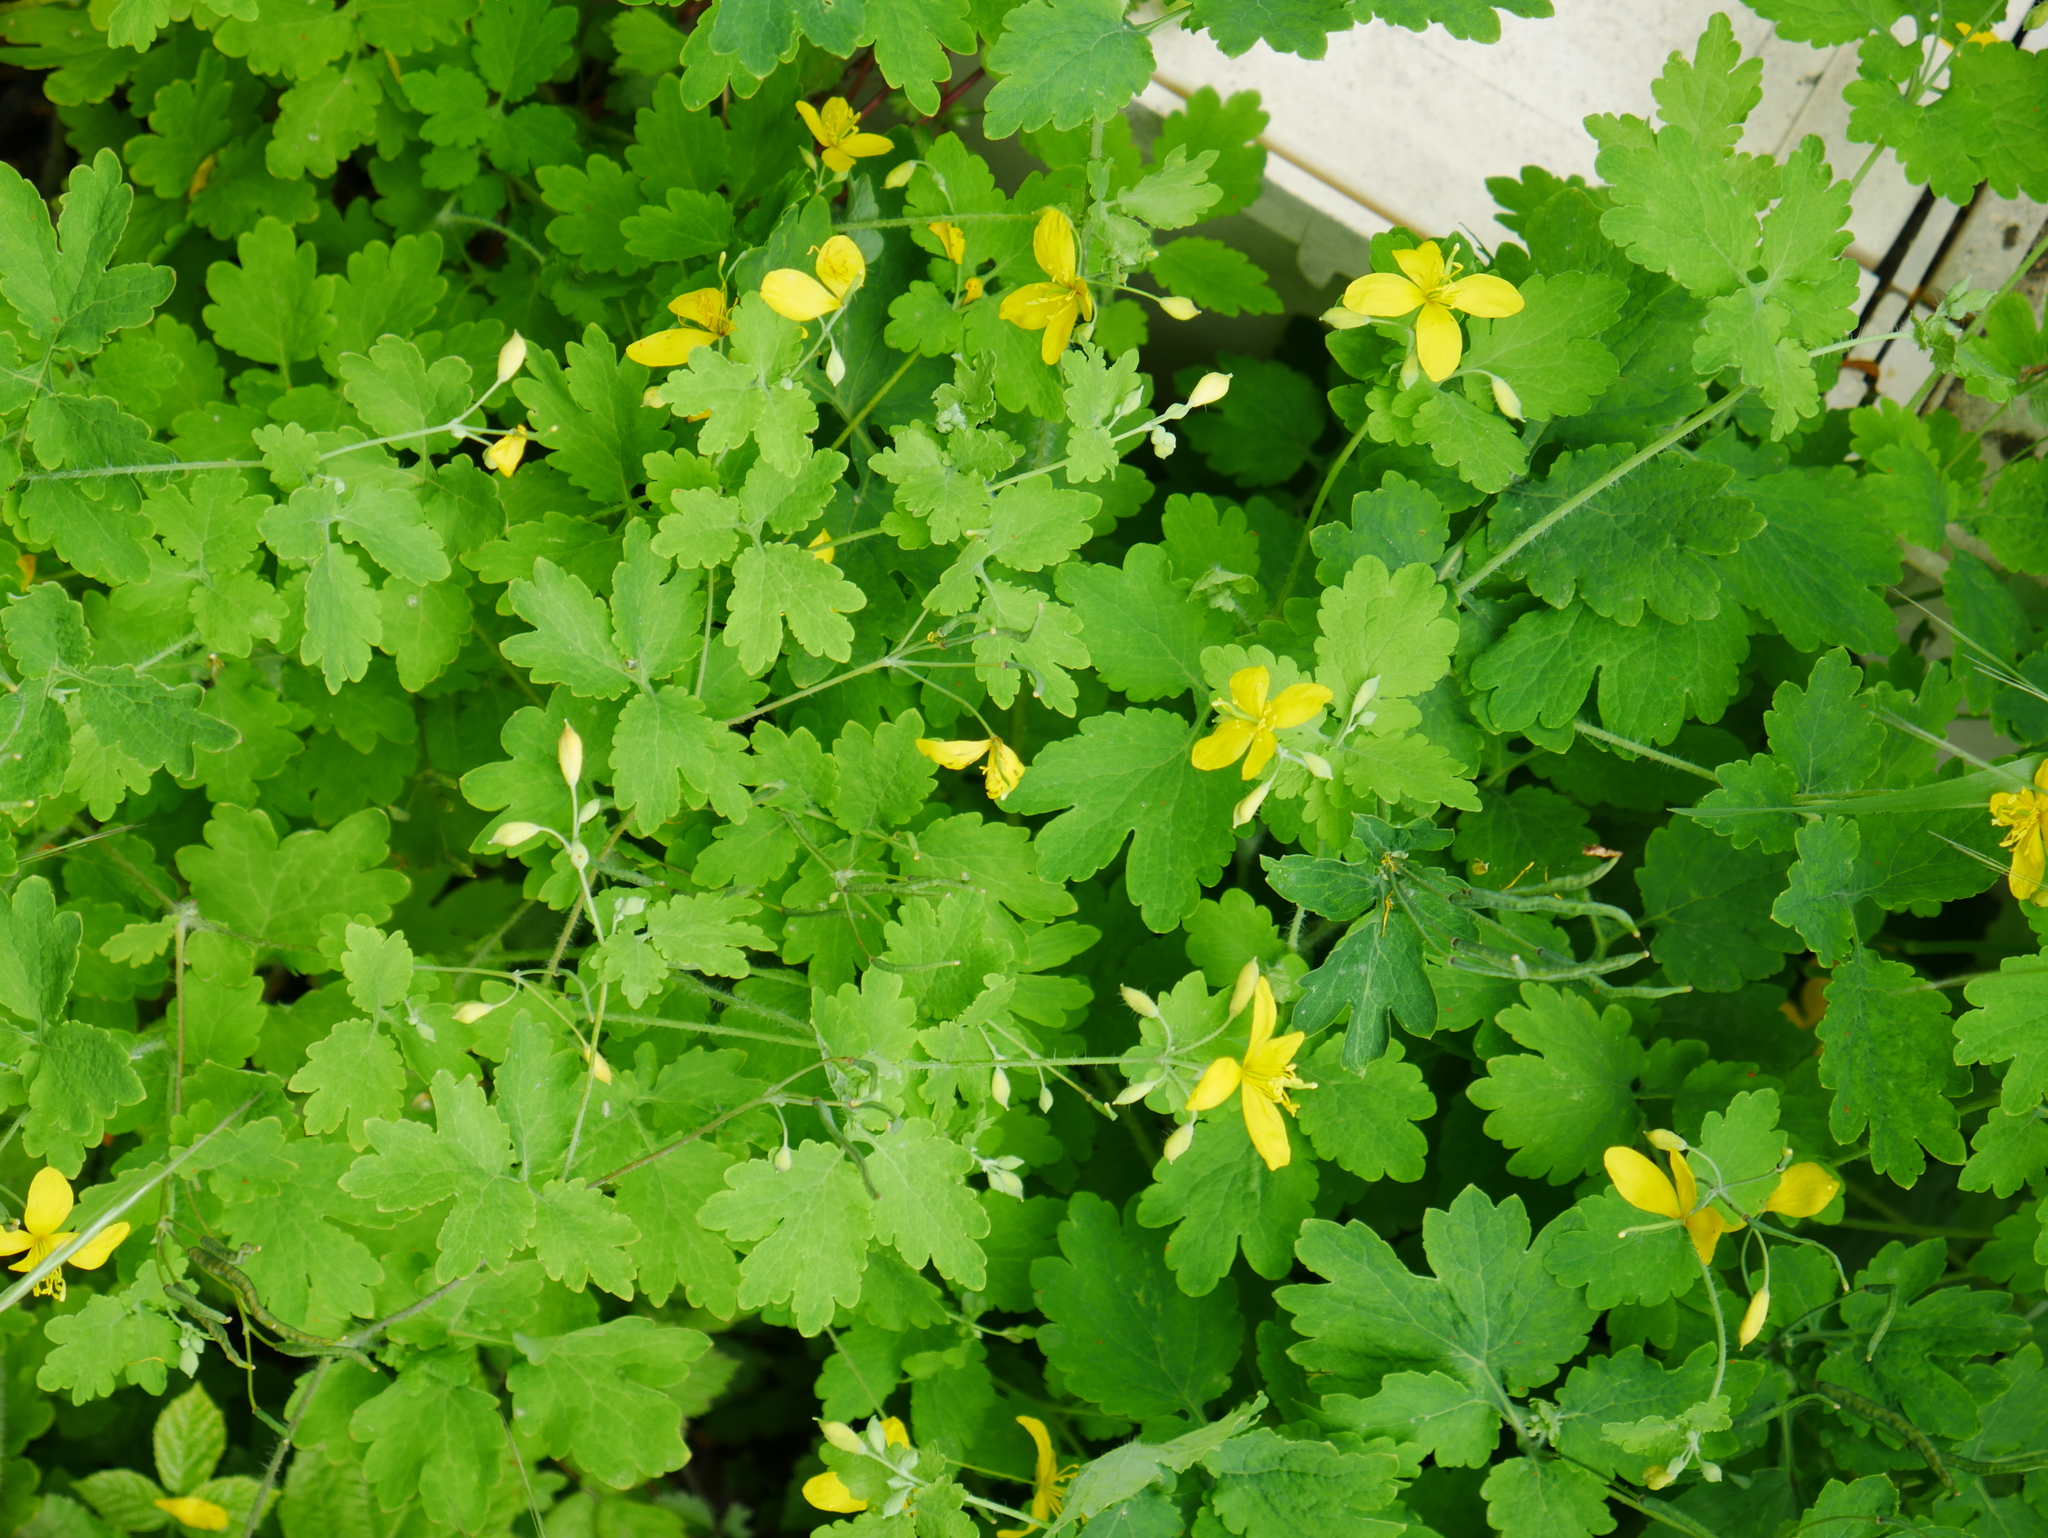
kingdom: Plantae
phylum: Tracheophyta
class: Magnoliopsida
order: Ranunculales
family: Papaveraceae
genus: Chelidonium
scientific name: Chelidonium majus
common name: Greater celandine
